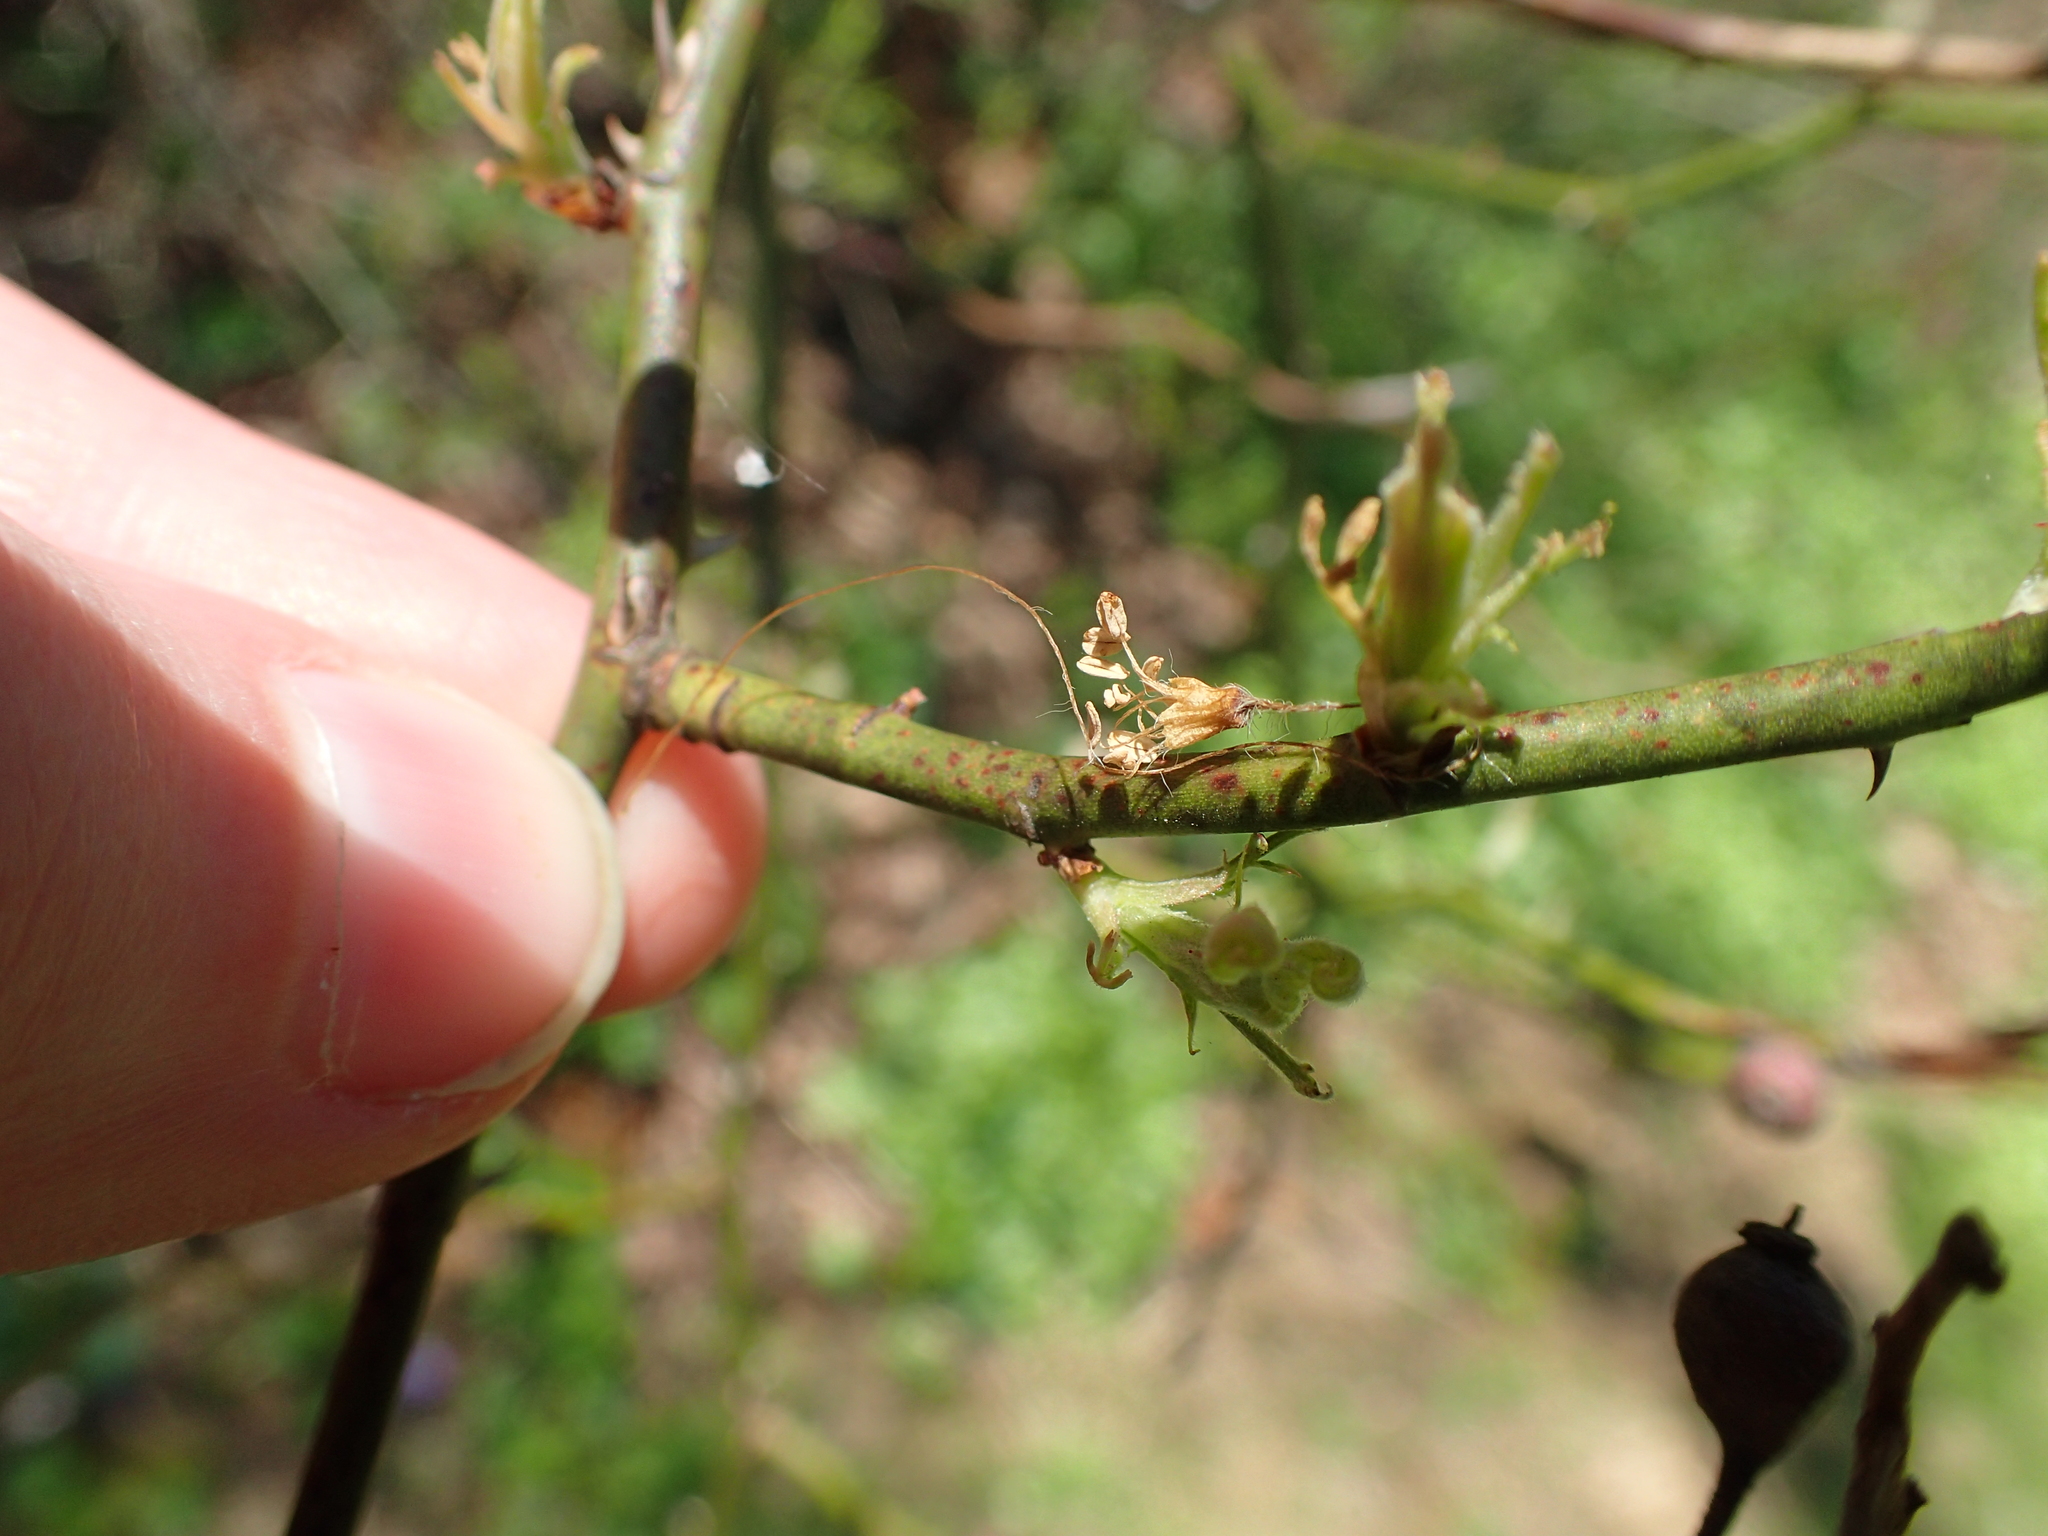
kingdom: Plantae
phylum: Tracheophyta
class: Magnoliopsida
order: Rosales
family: Rosaceae
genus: Rosa
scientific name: Rosa multiflora
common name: Multiflora rose
